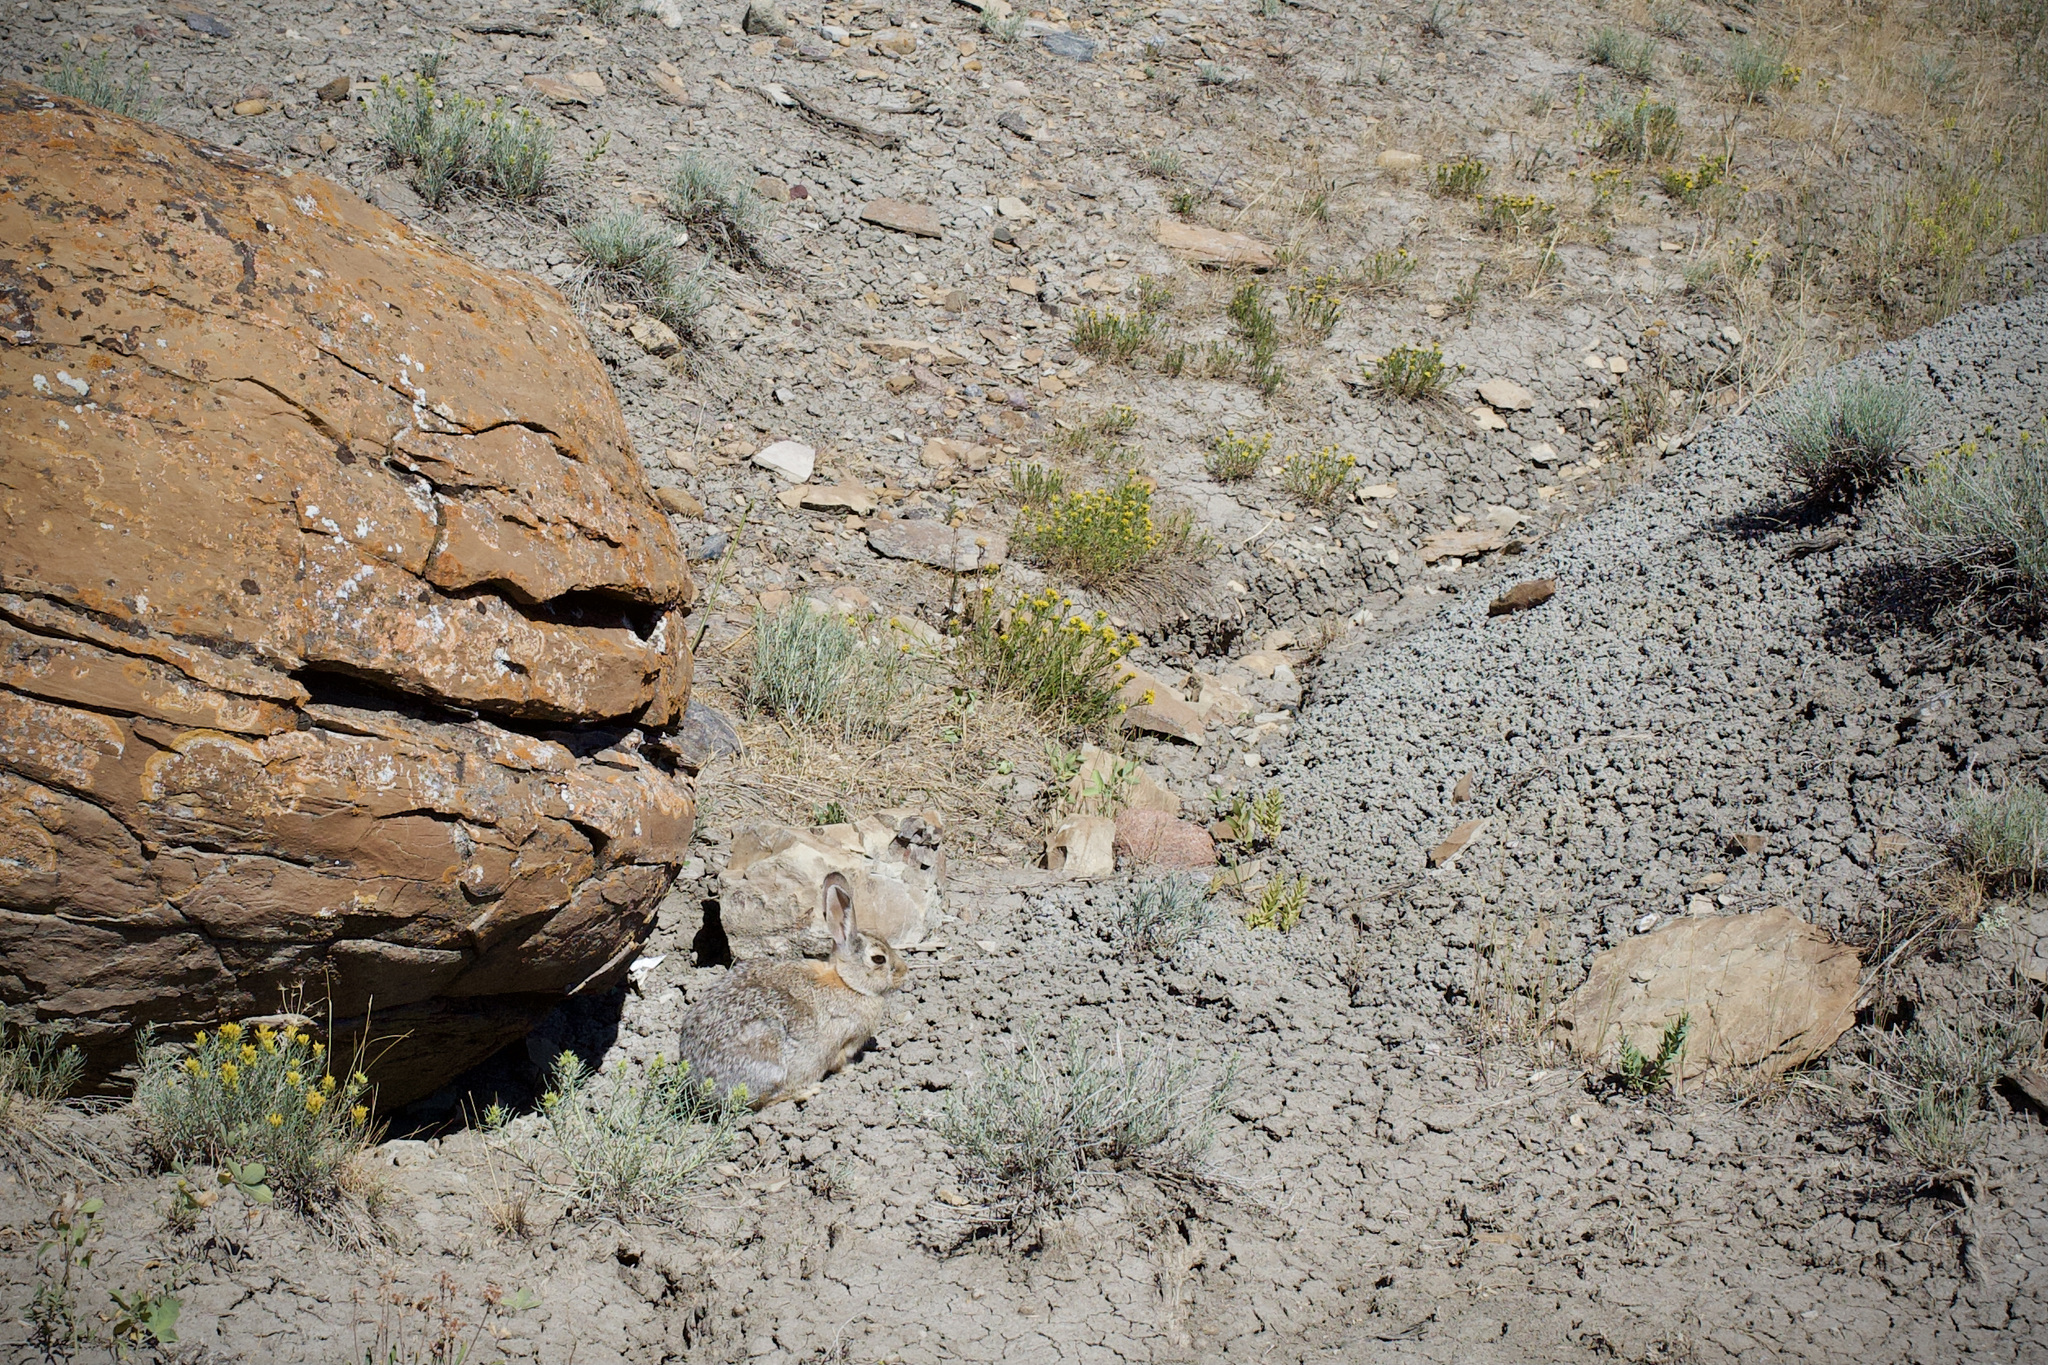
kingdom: Animalia
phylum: Chordata
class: Mammalia
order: Lagomorpha
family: Leporidae
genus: Sylvilagus
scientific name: Sylvilagus nuttallii
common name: Mountain cottontail
